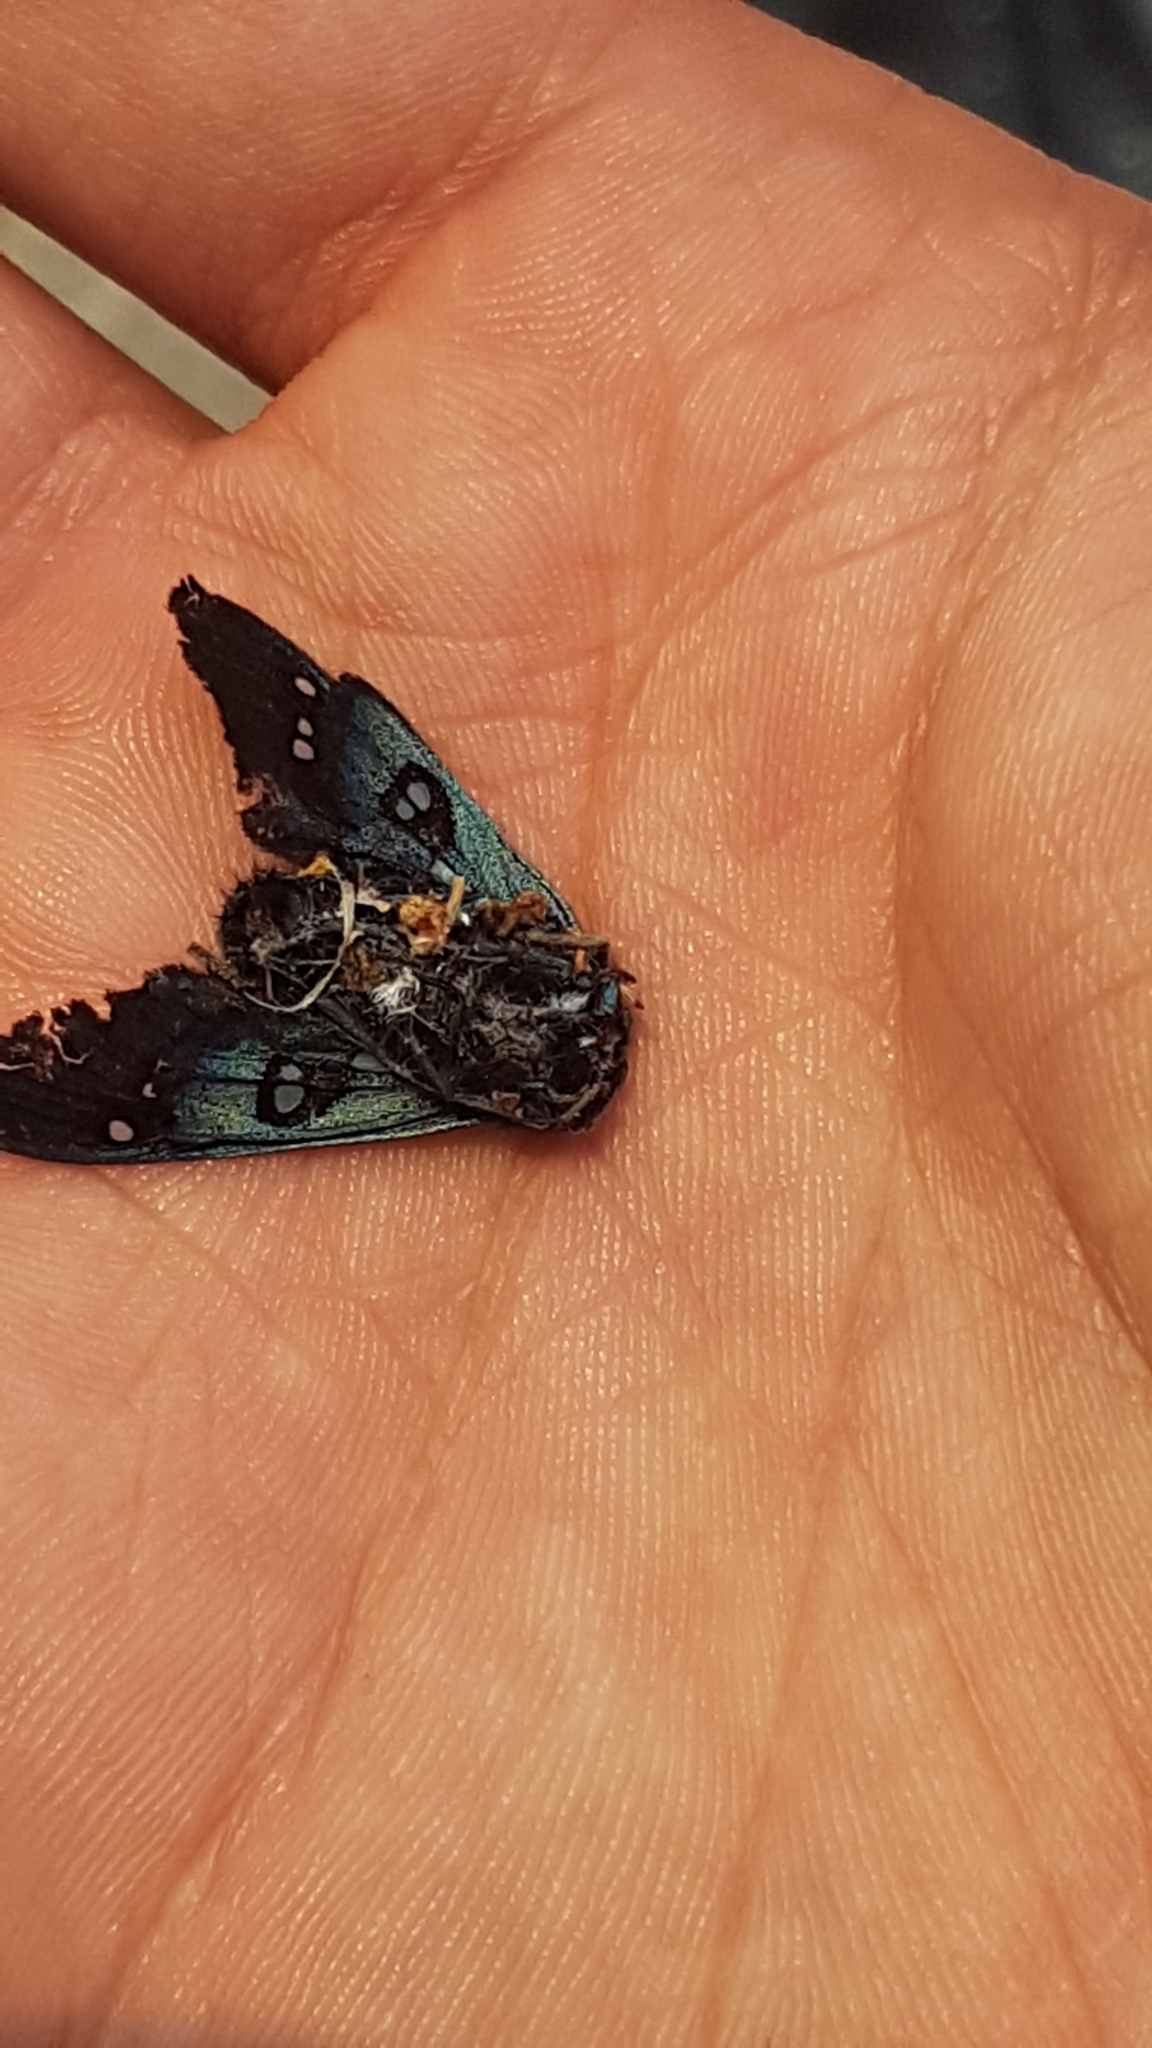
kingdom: Animalia
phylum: Arthropoda
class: Insecta
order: Lepidoptera
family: Erebidae
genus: Chrysocale
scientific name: Chrysocale regalis
